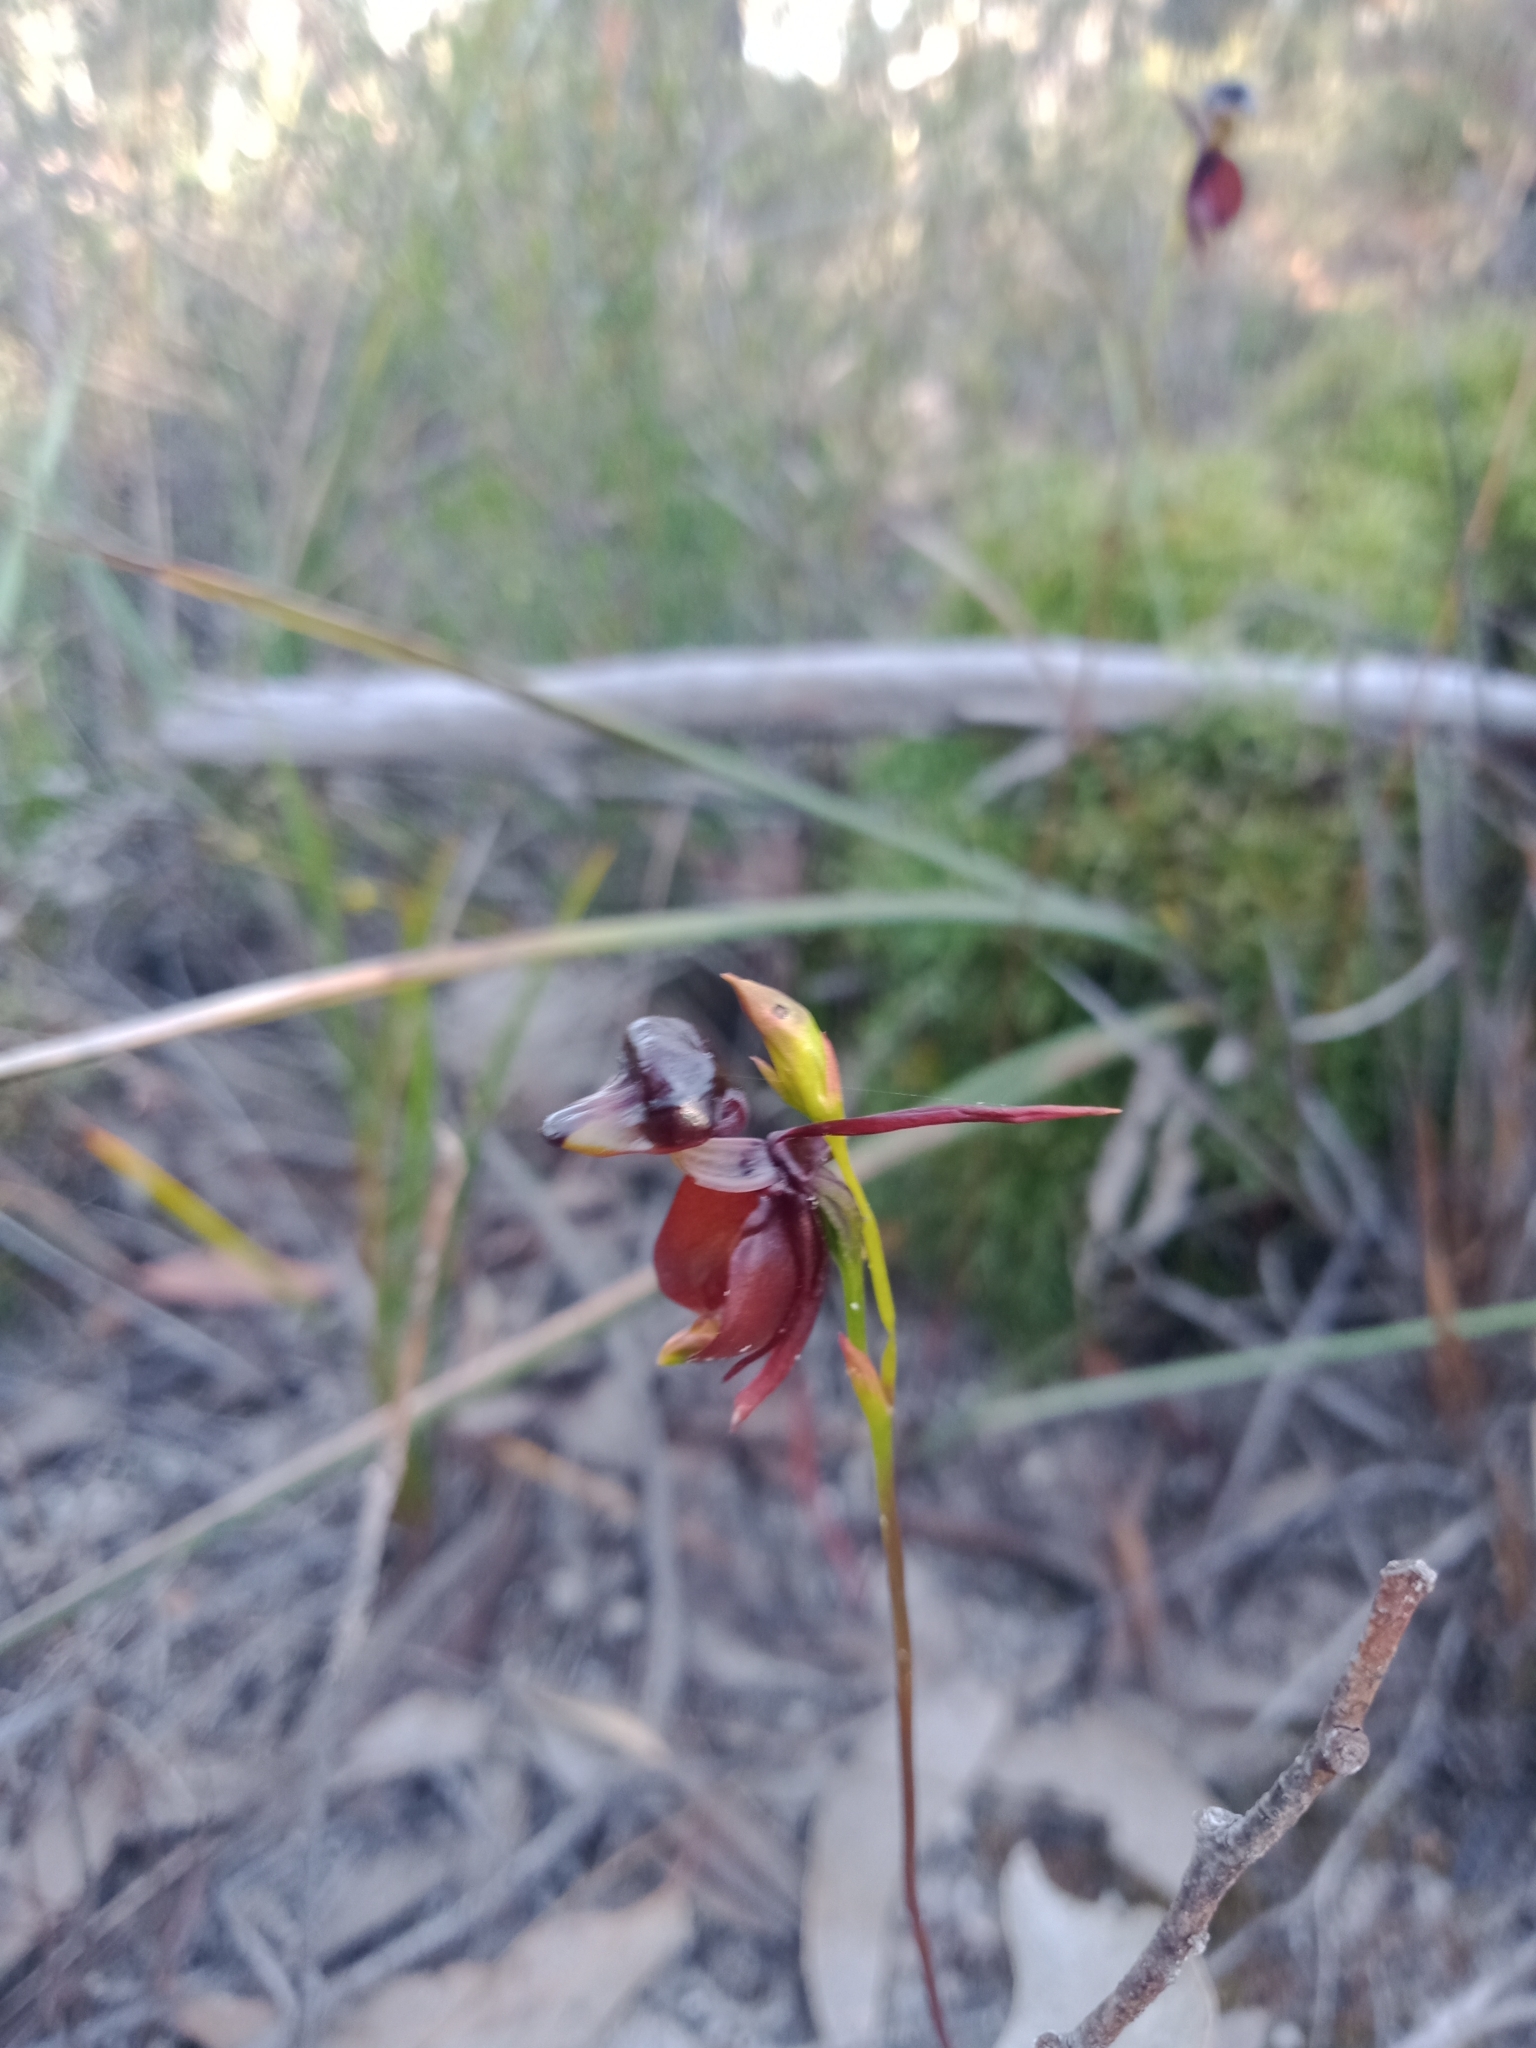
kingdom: Plantae
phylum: Tracheophyta
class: Liliopsida
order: Asparagales
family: Orchidaceae
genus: Caleana
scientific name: Caleana major
